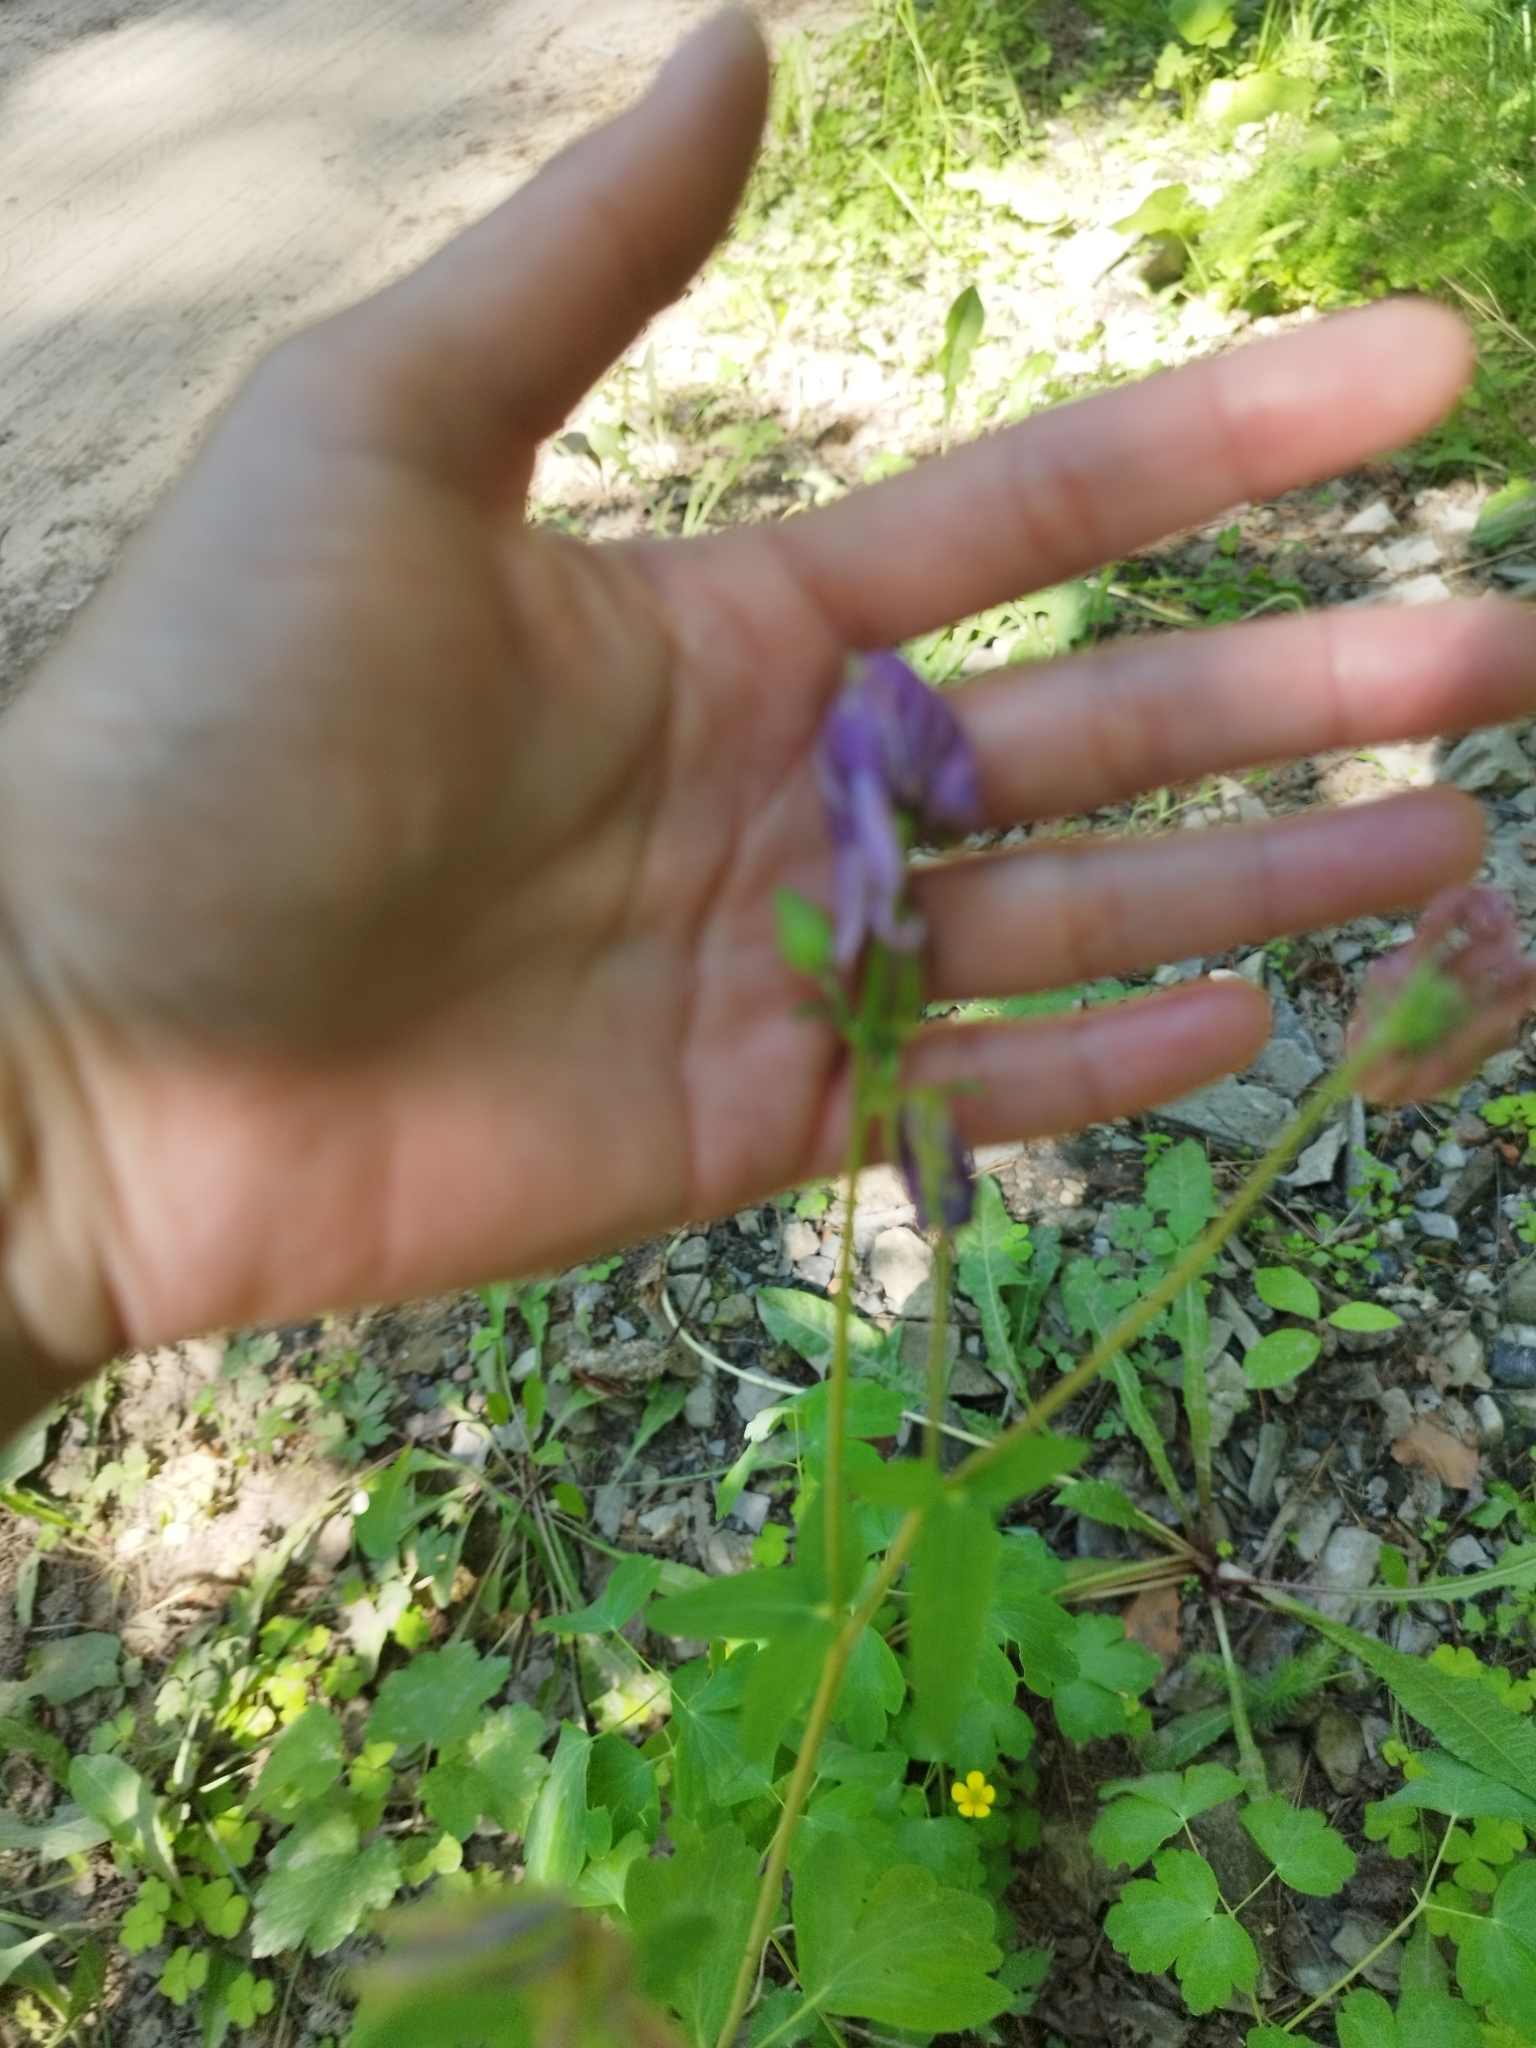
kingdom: Plantae
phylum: Tracheophyta
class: Magnoliopsida
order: Ranunculales
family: Ranunculaceae
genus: Aquilegia
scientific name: Aquilegia vulgaris
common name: Columbine
